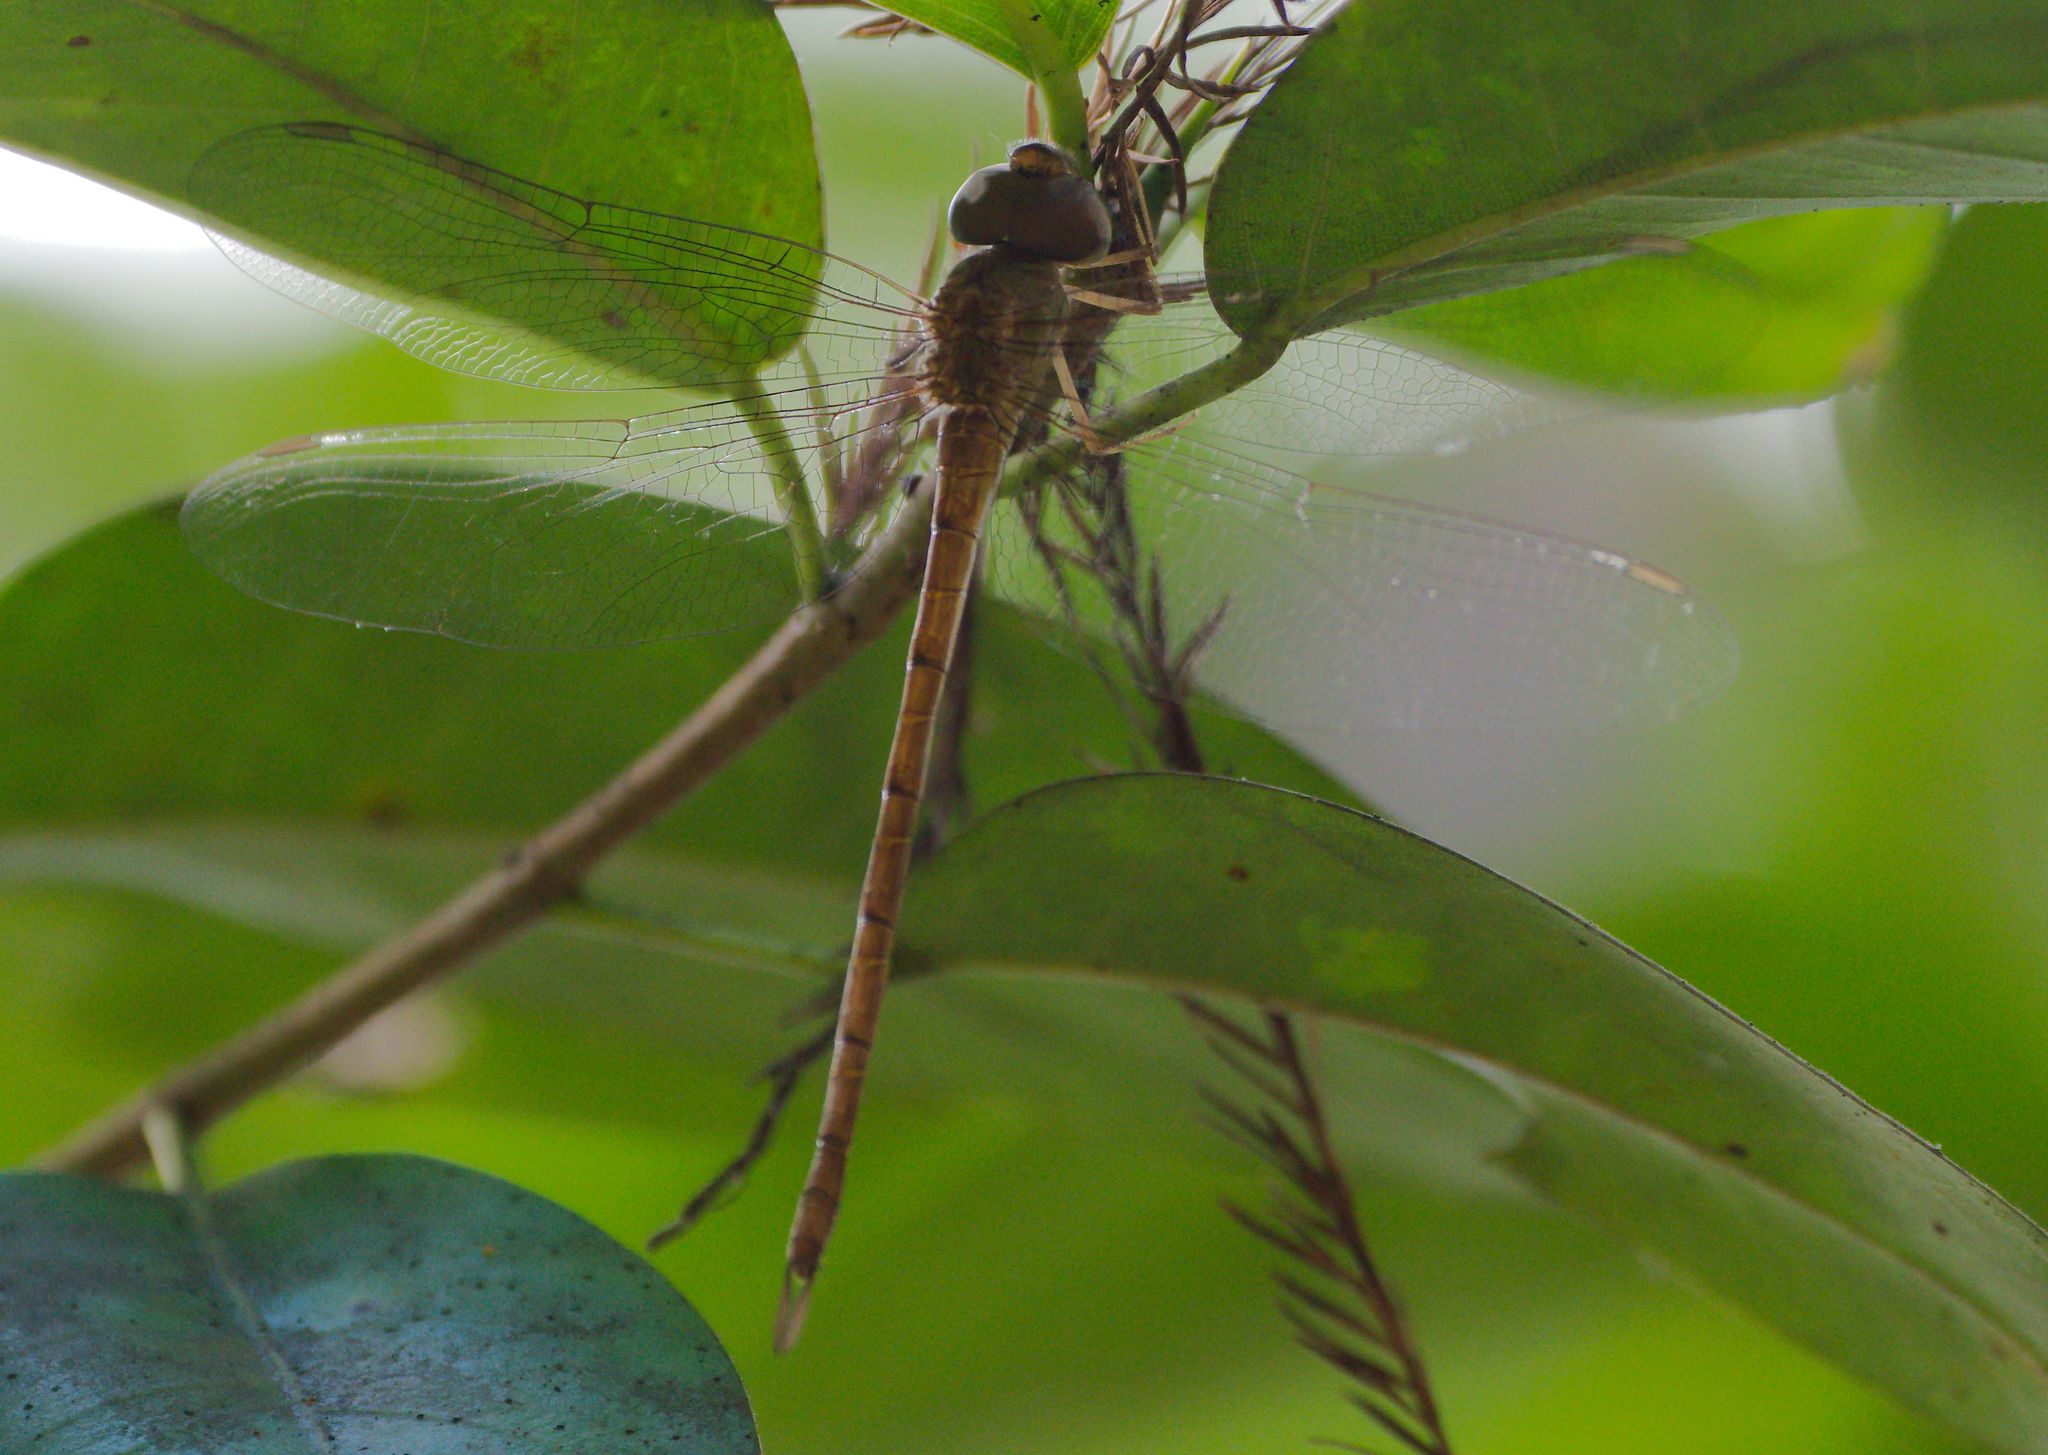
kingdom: Animalia
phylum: Arthropoda
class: Insecta
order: Odonata
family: Aeshnidae
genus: Triacanthagyna
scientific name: Triacanthagyna septima
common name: Pale-green darner
